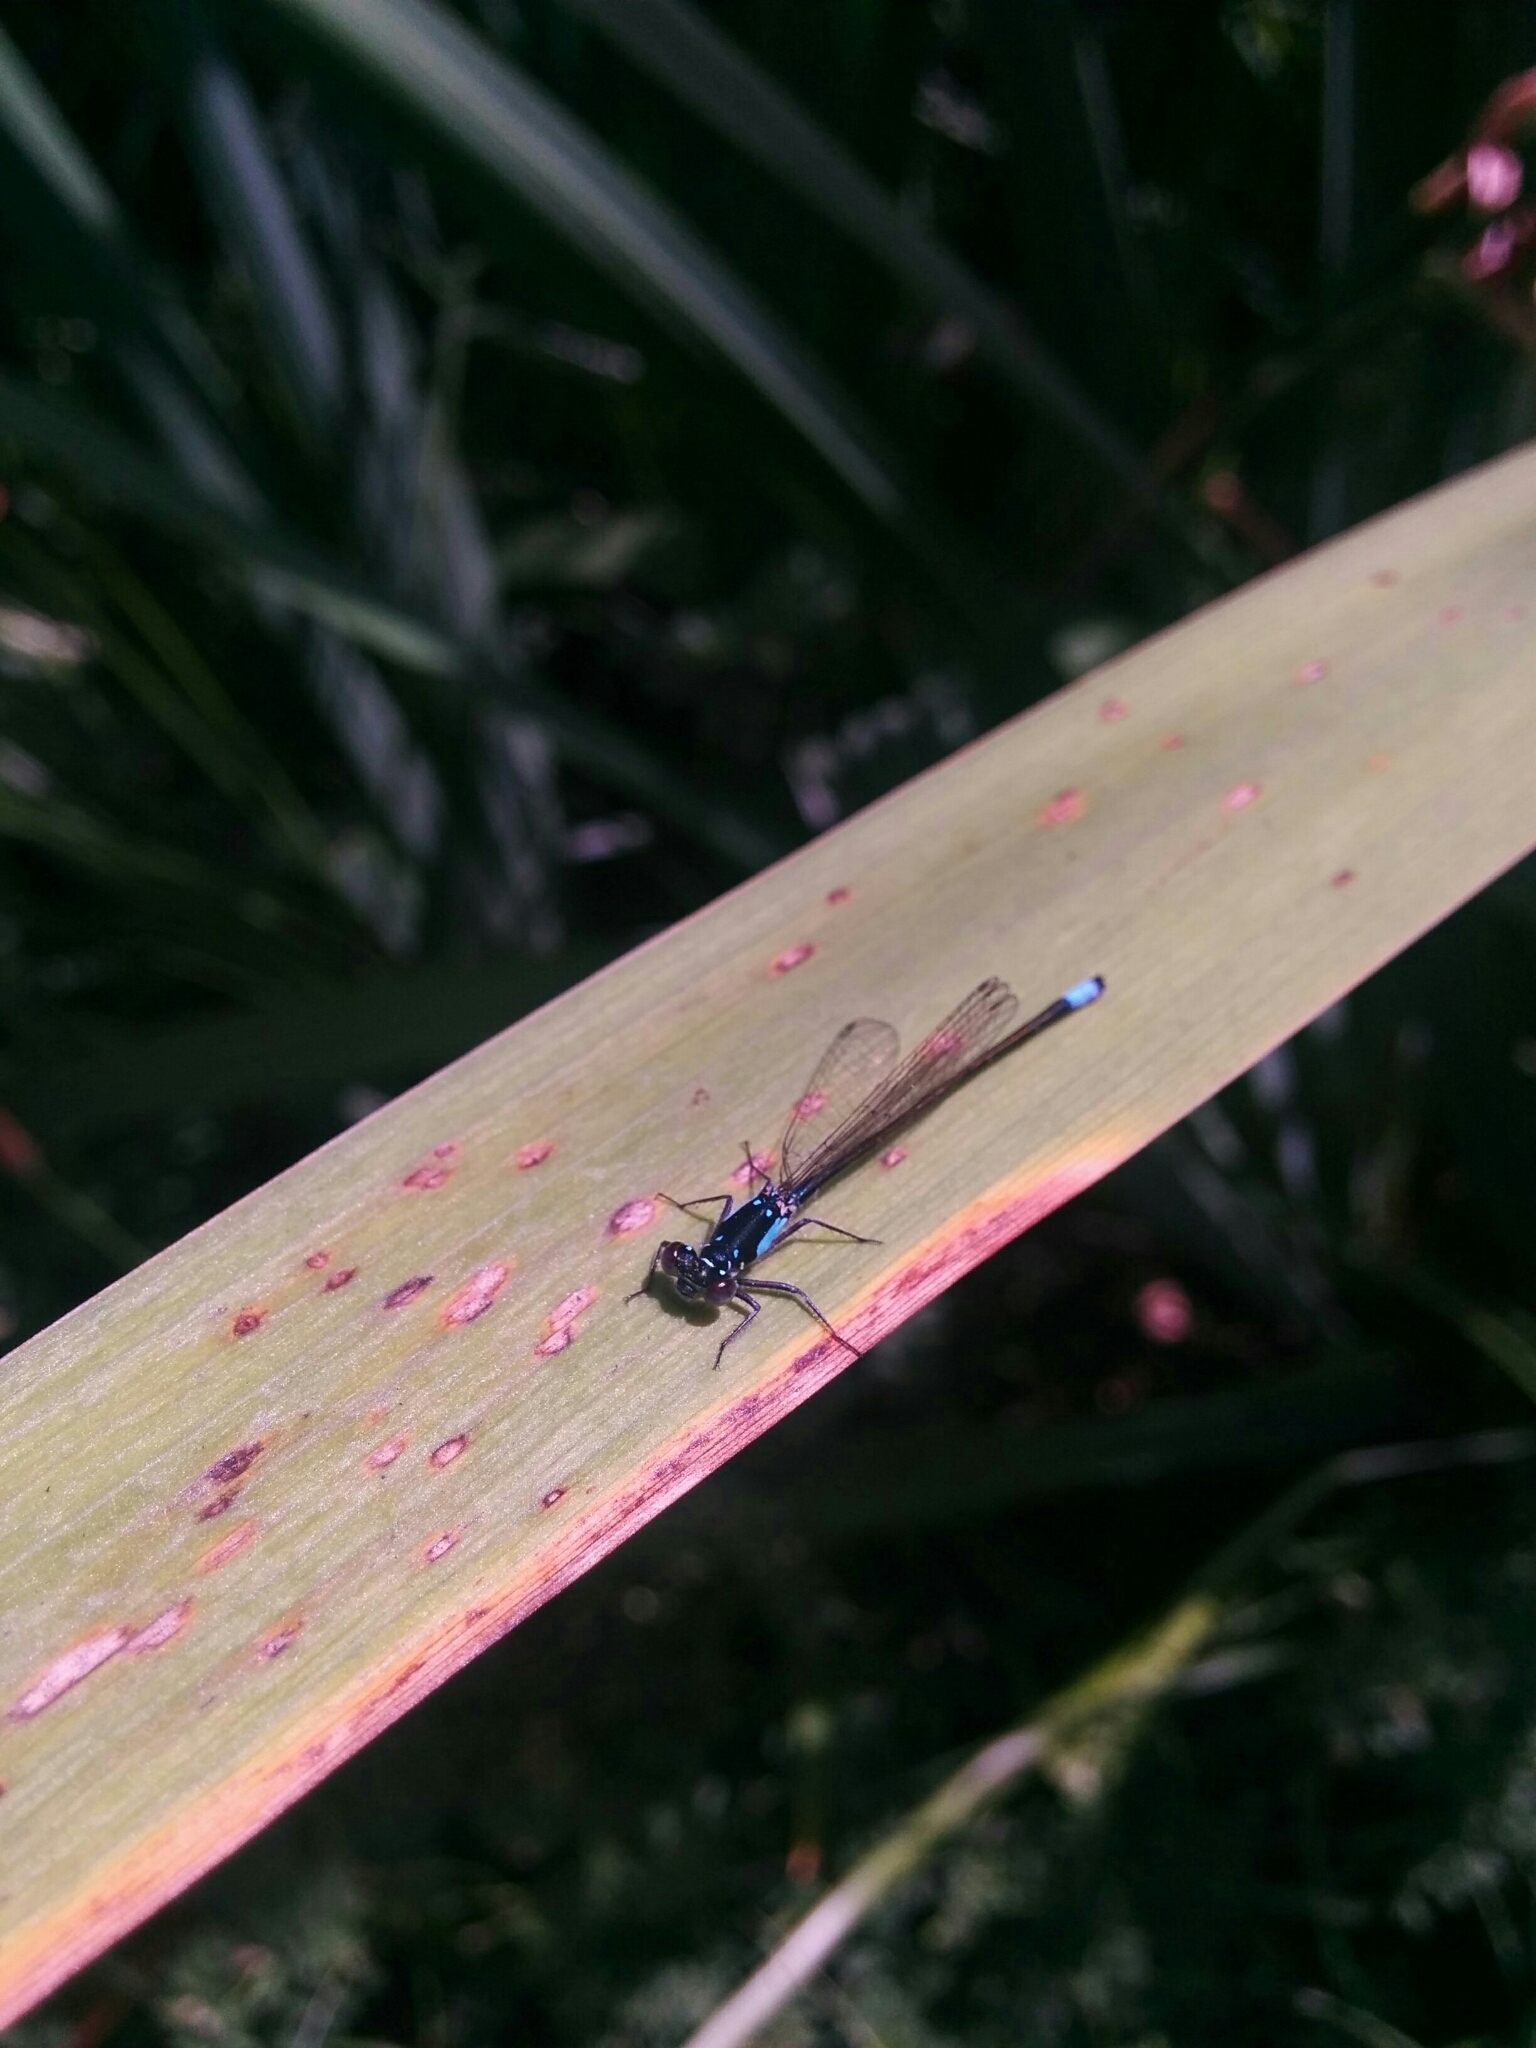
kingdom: Animalia
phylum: Arthropoda
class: Insecta
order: Odonata
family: Coenagrionidae
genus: Ischnura
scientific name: Ischnura cervula
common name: Pacific forktail
